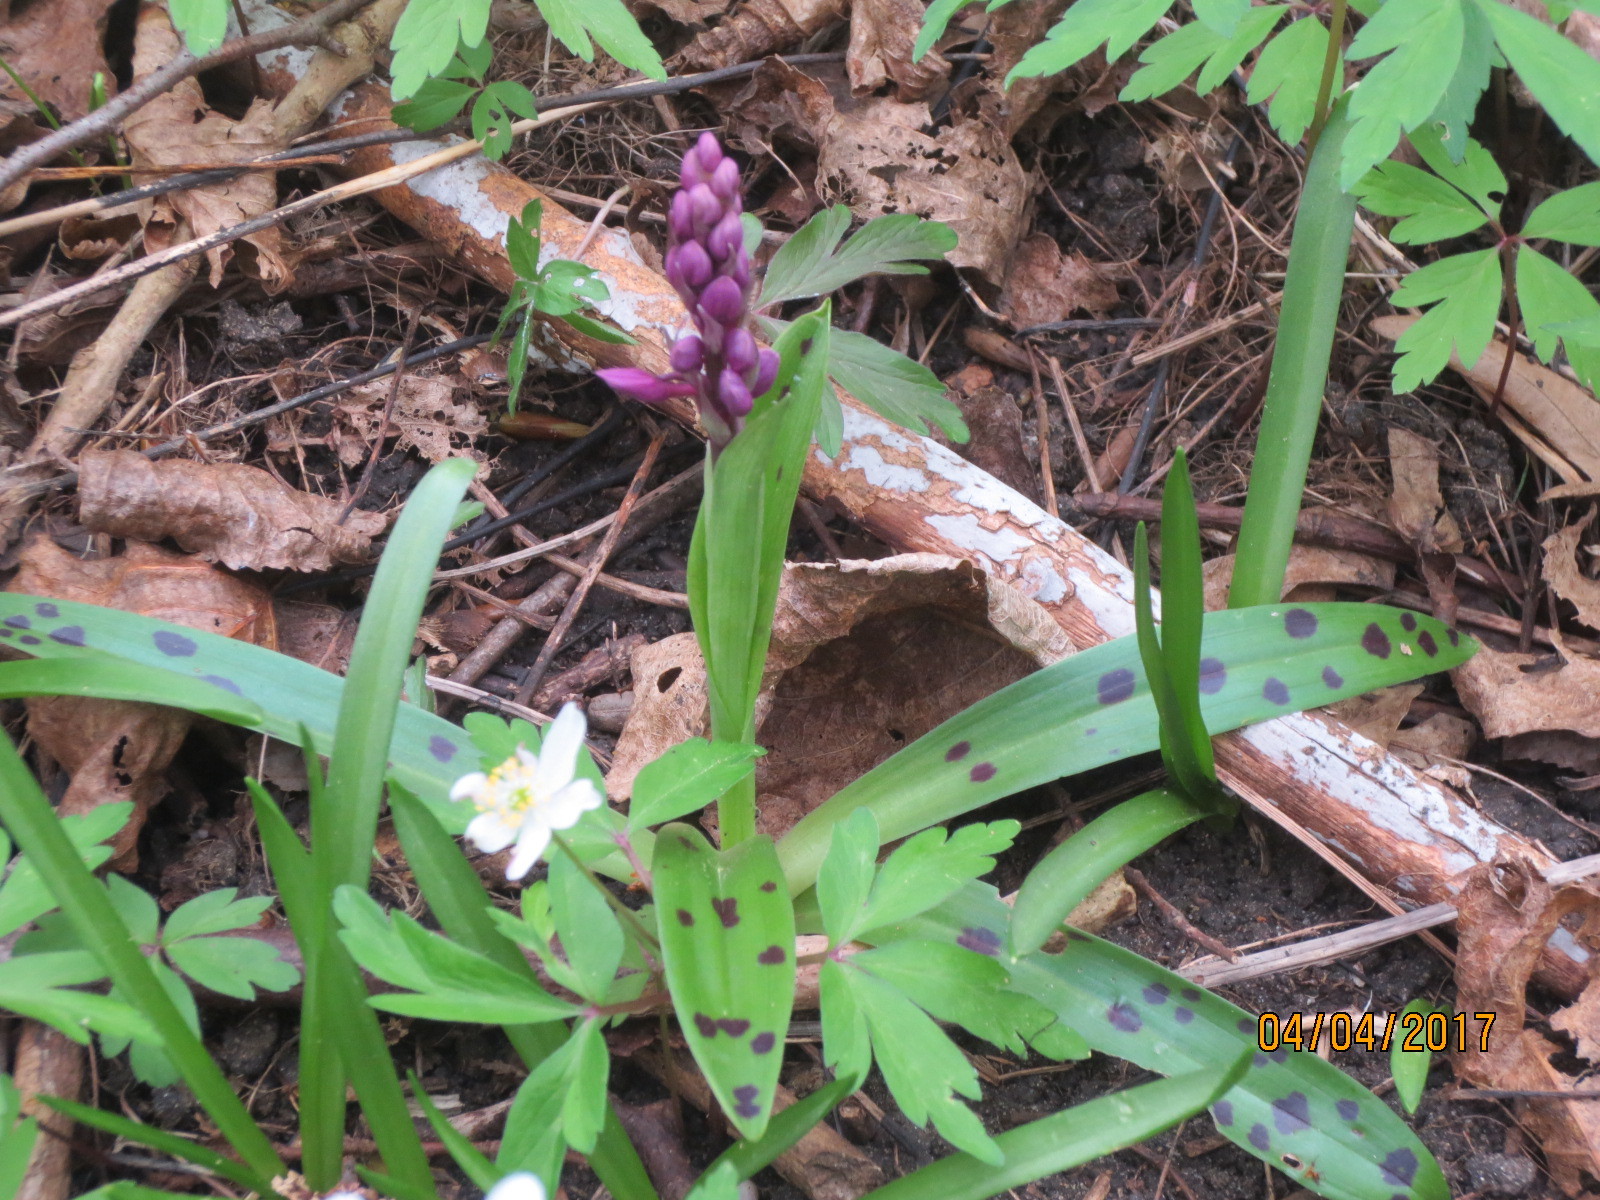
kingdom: Plantae
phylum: Tracheophyta
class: Liliopsida
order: Asparagales
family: Orchidaceae
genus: Orchis
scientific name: Orchis mascula
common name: Early-purple orchid
